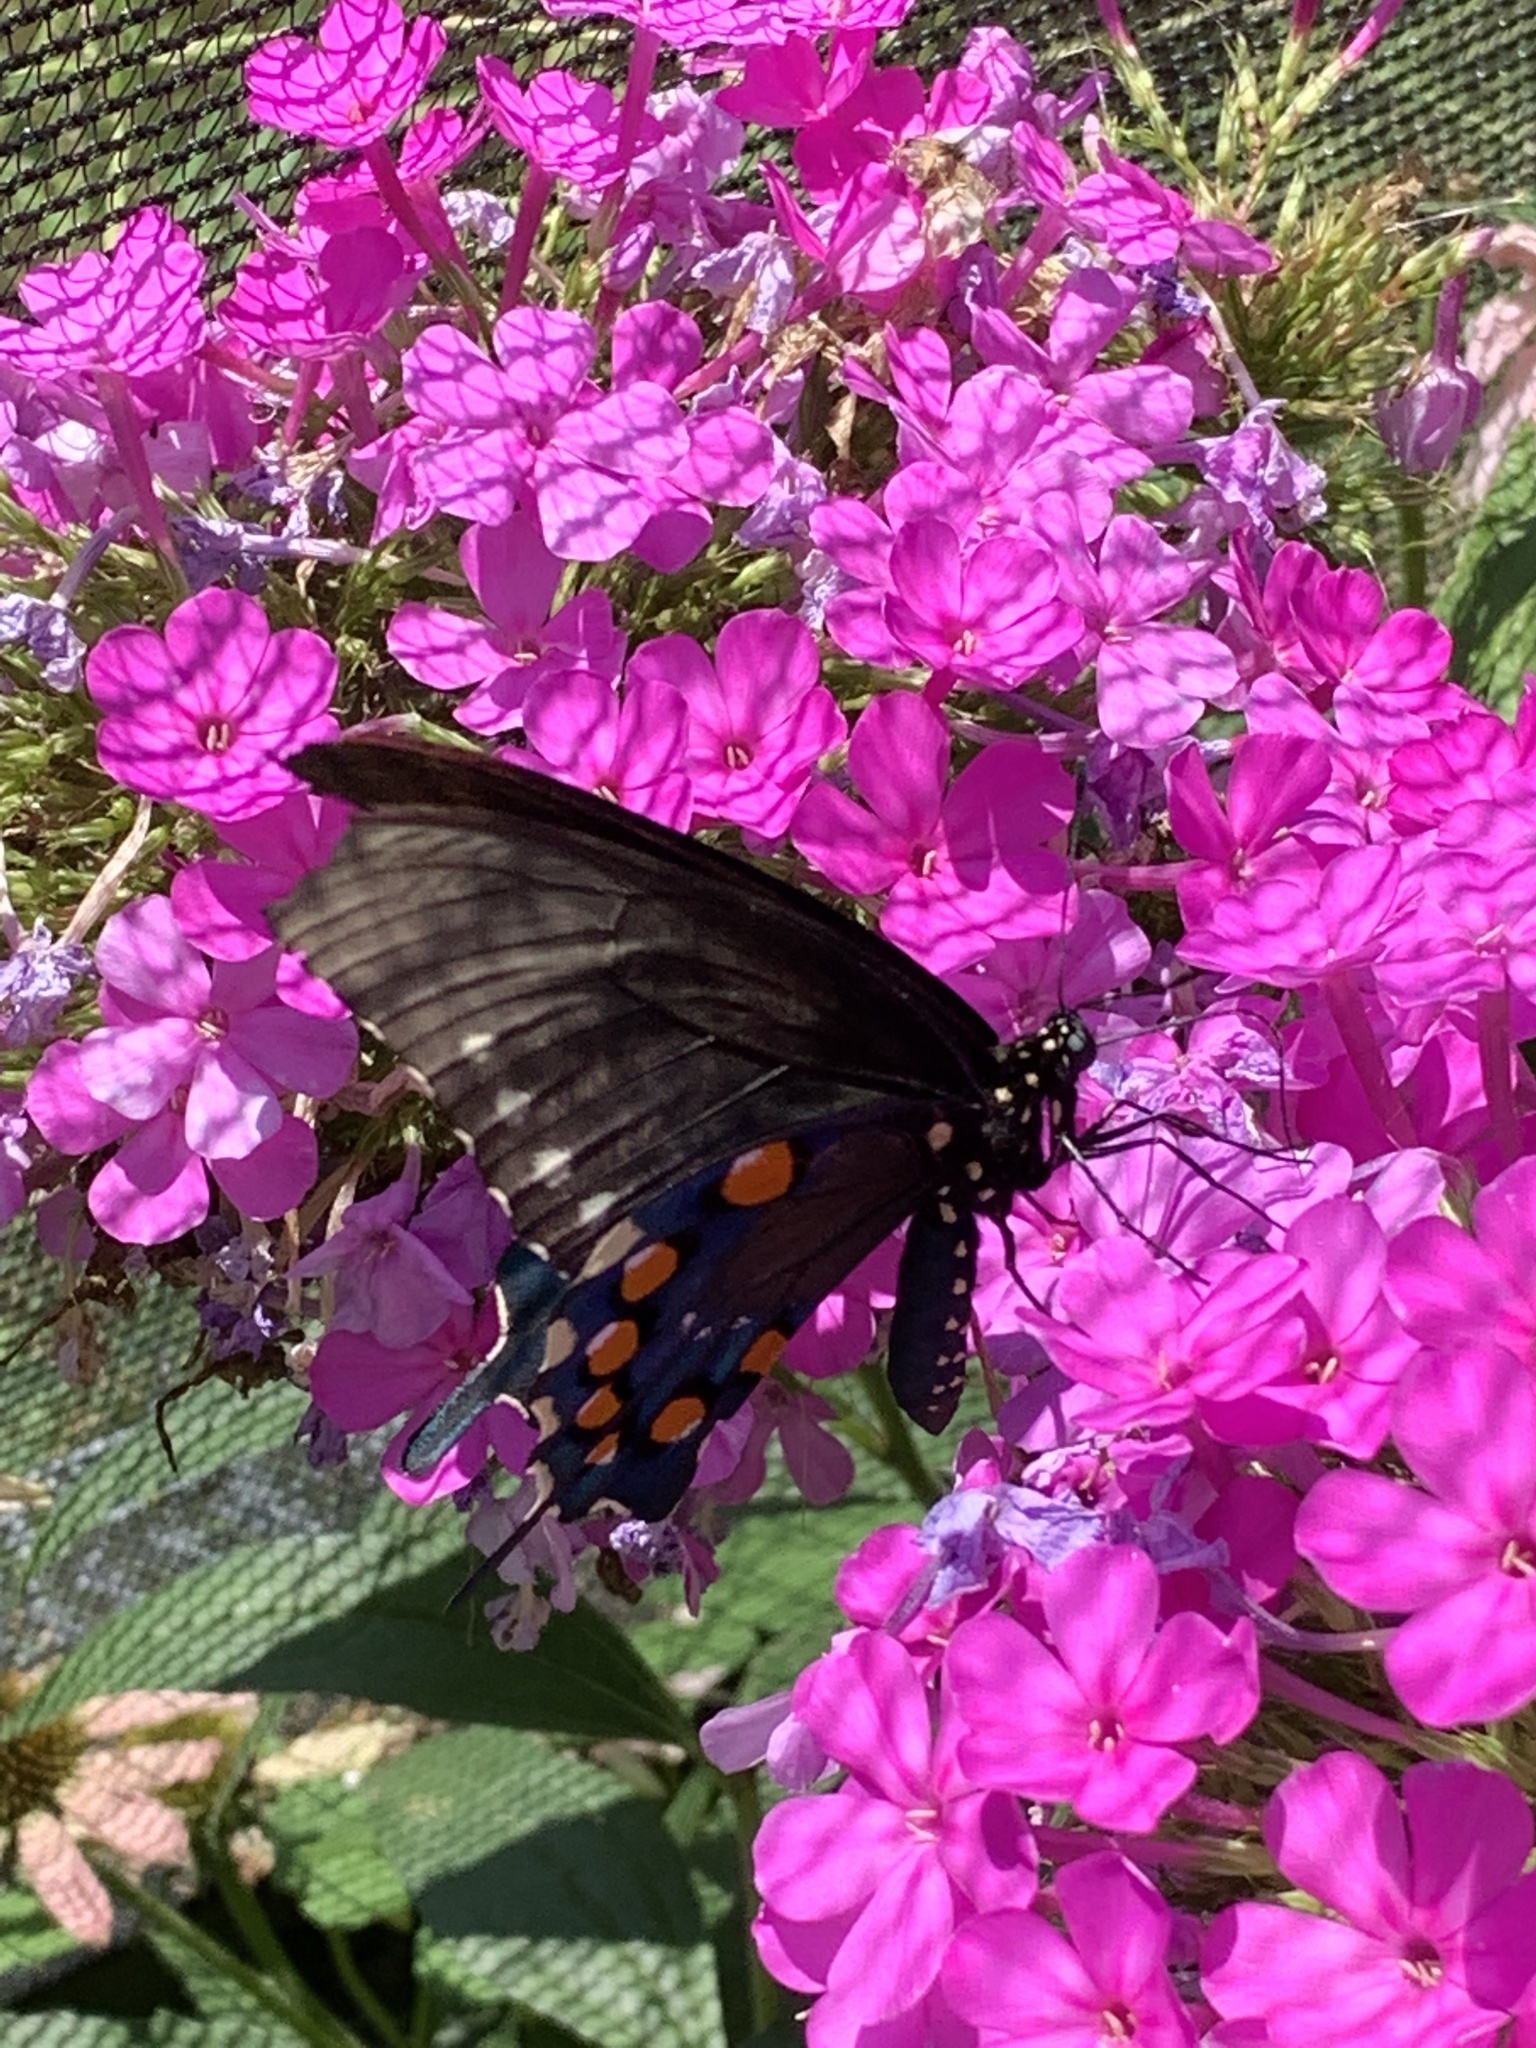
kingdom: Animalia
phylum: Arthropoda
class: Insecta
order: Lepidoptera
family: Papilionidae
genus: Battus
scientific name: Battus philenor
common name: Pipevine swallowtail
